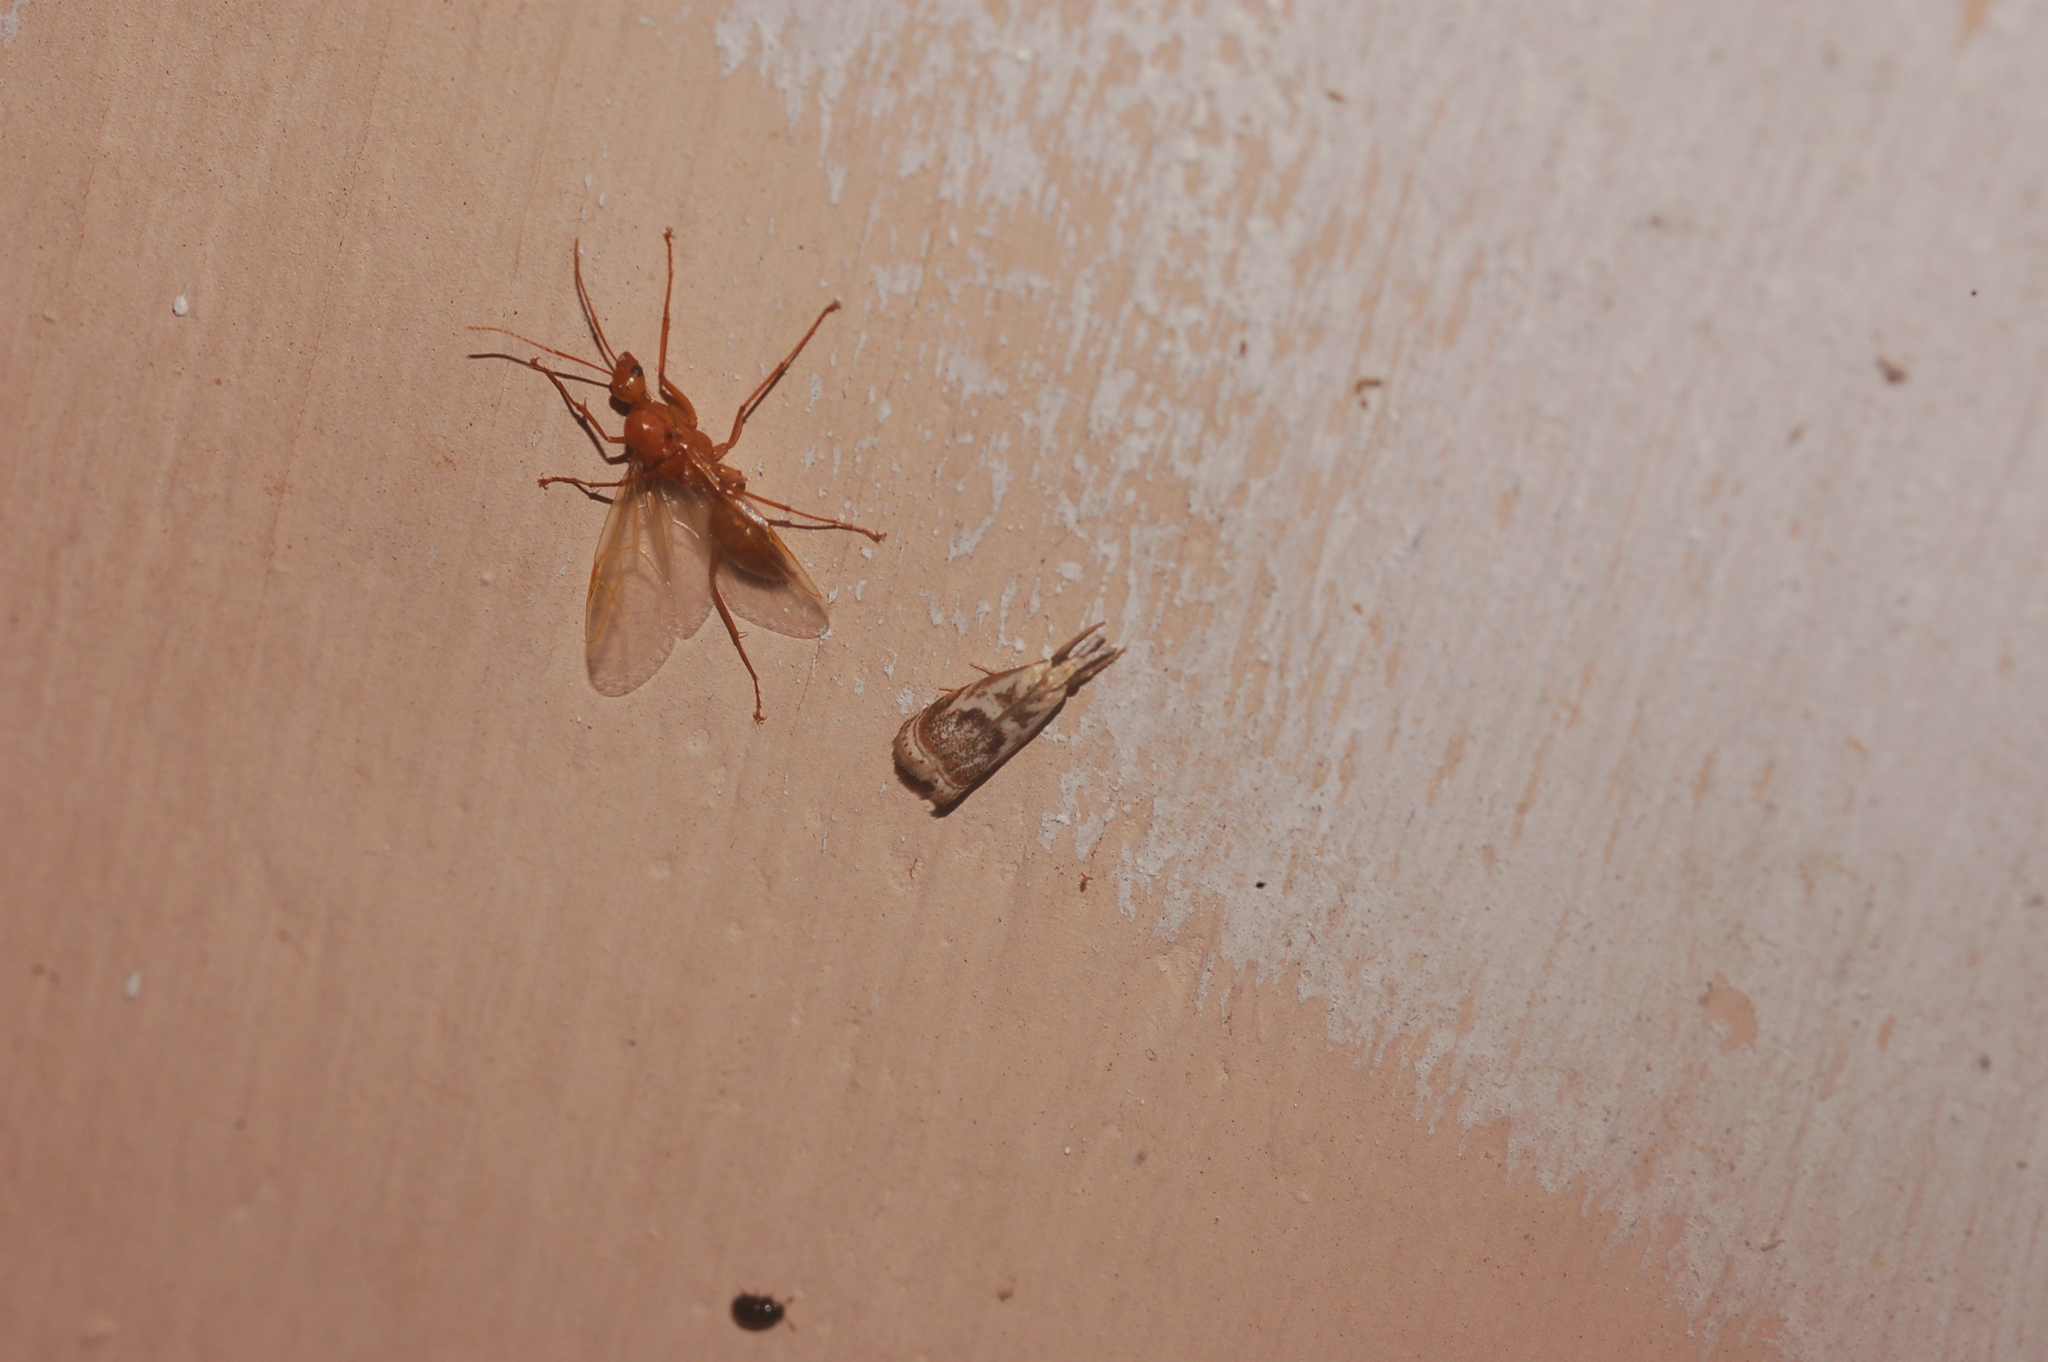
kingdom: Animalia
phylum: Arthropoda
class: Insecta
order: Lepidoptera
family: Crambidae
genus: Microcrambus
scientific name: Microcrambus elegans
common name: Elegant grass-veneer
